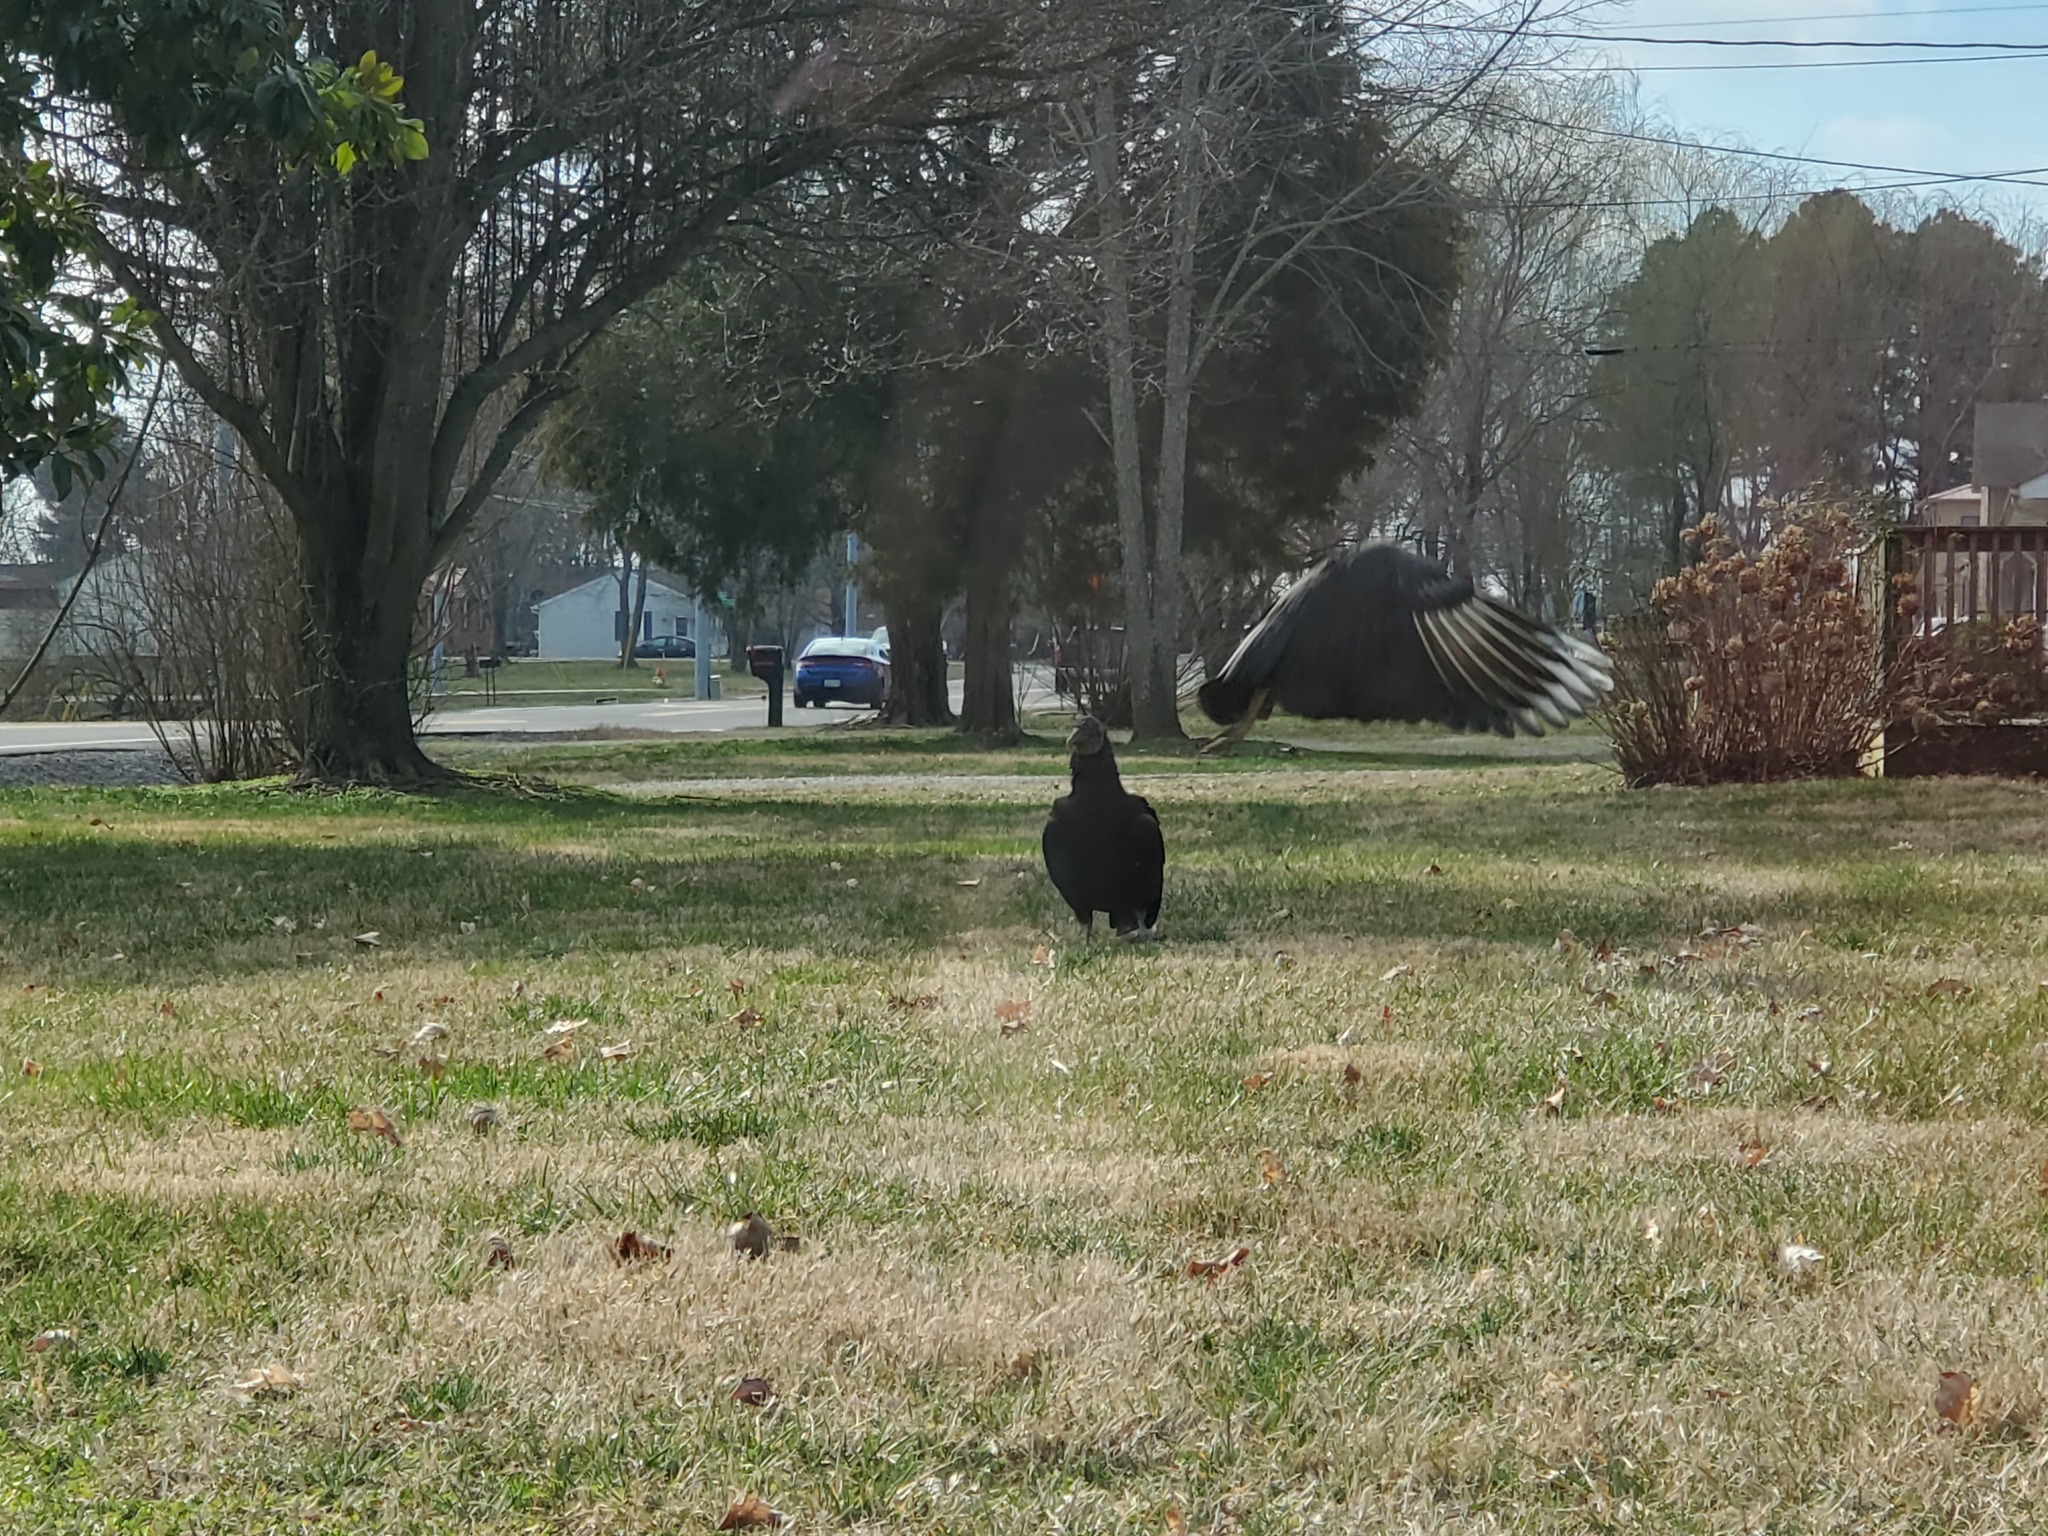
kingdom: Animalia
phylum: Chordata
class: Aves
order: Accipitriformes
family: Cathartidae
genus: Coragyps
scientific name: Coragyps atratus
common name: Black vulture
